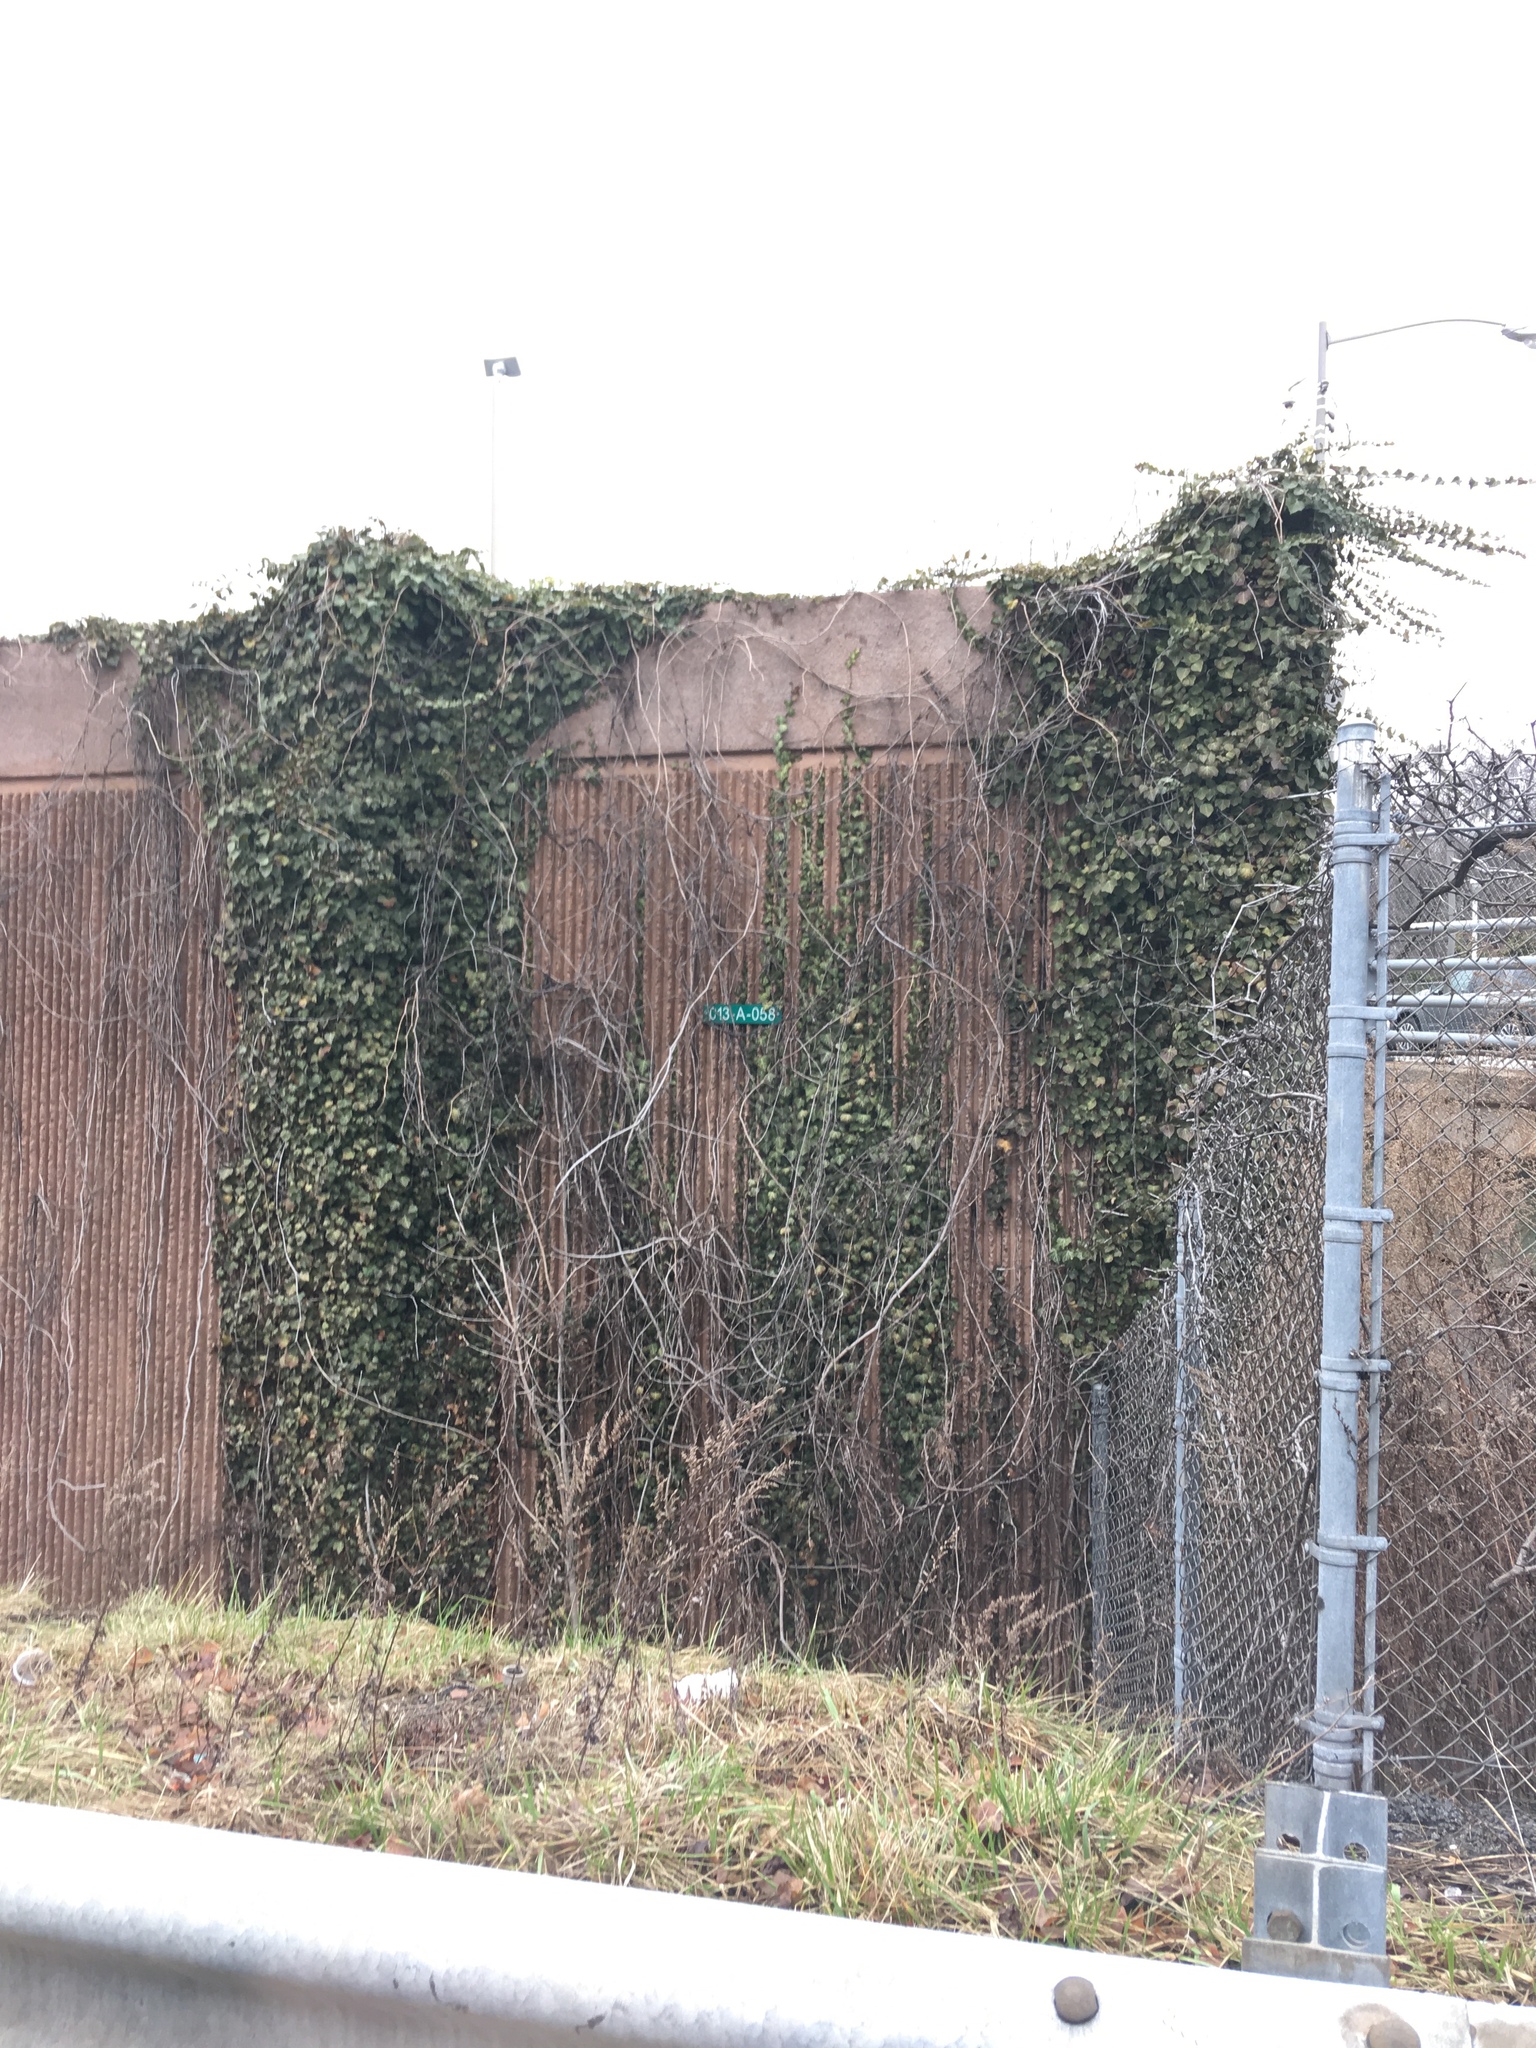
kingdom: Plantae
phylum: Tracheophyta
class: Magnoliopsida
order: Apiales
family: Araliaceae
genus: Hedera
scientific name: Hedera helix
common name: Ivy
